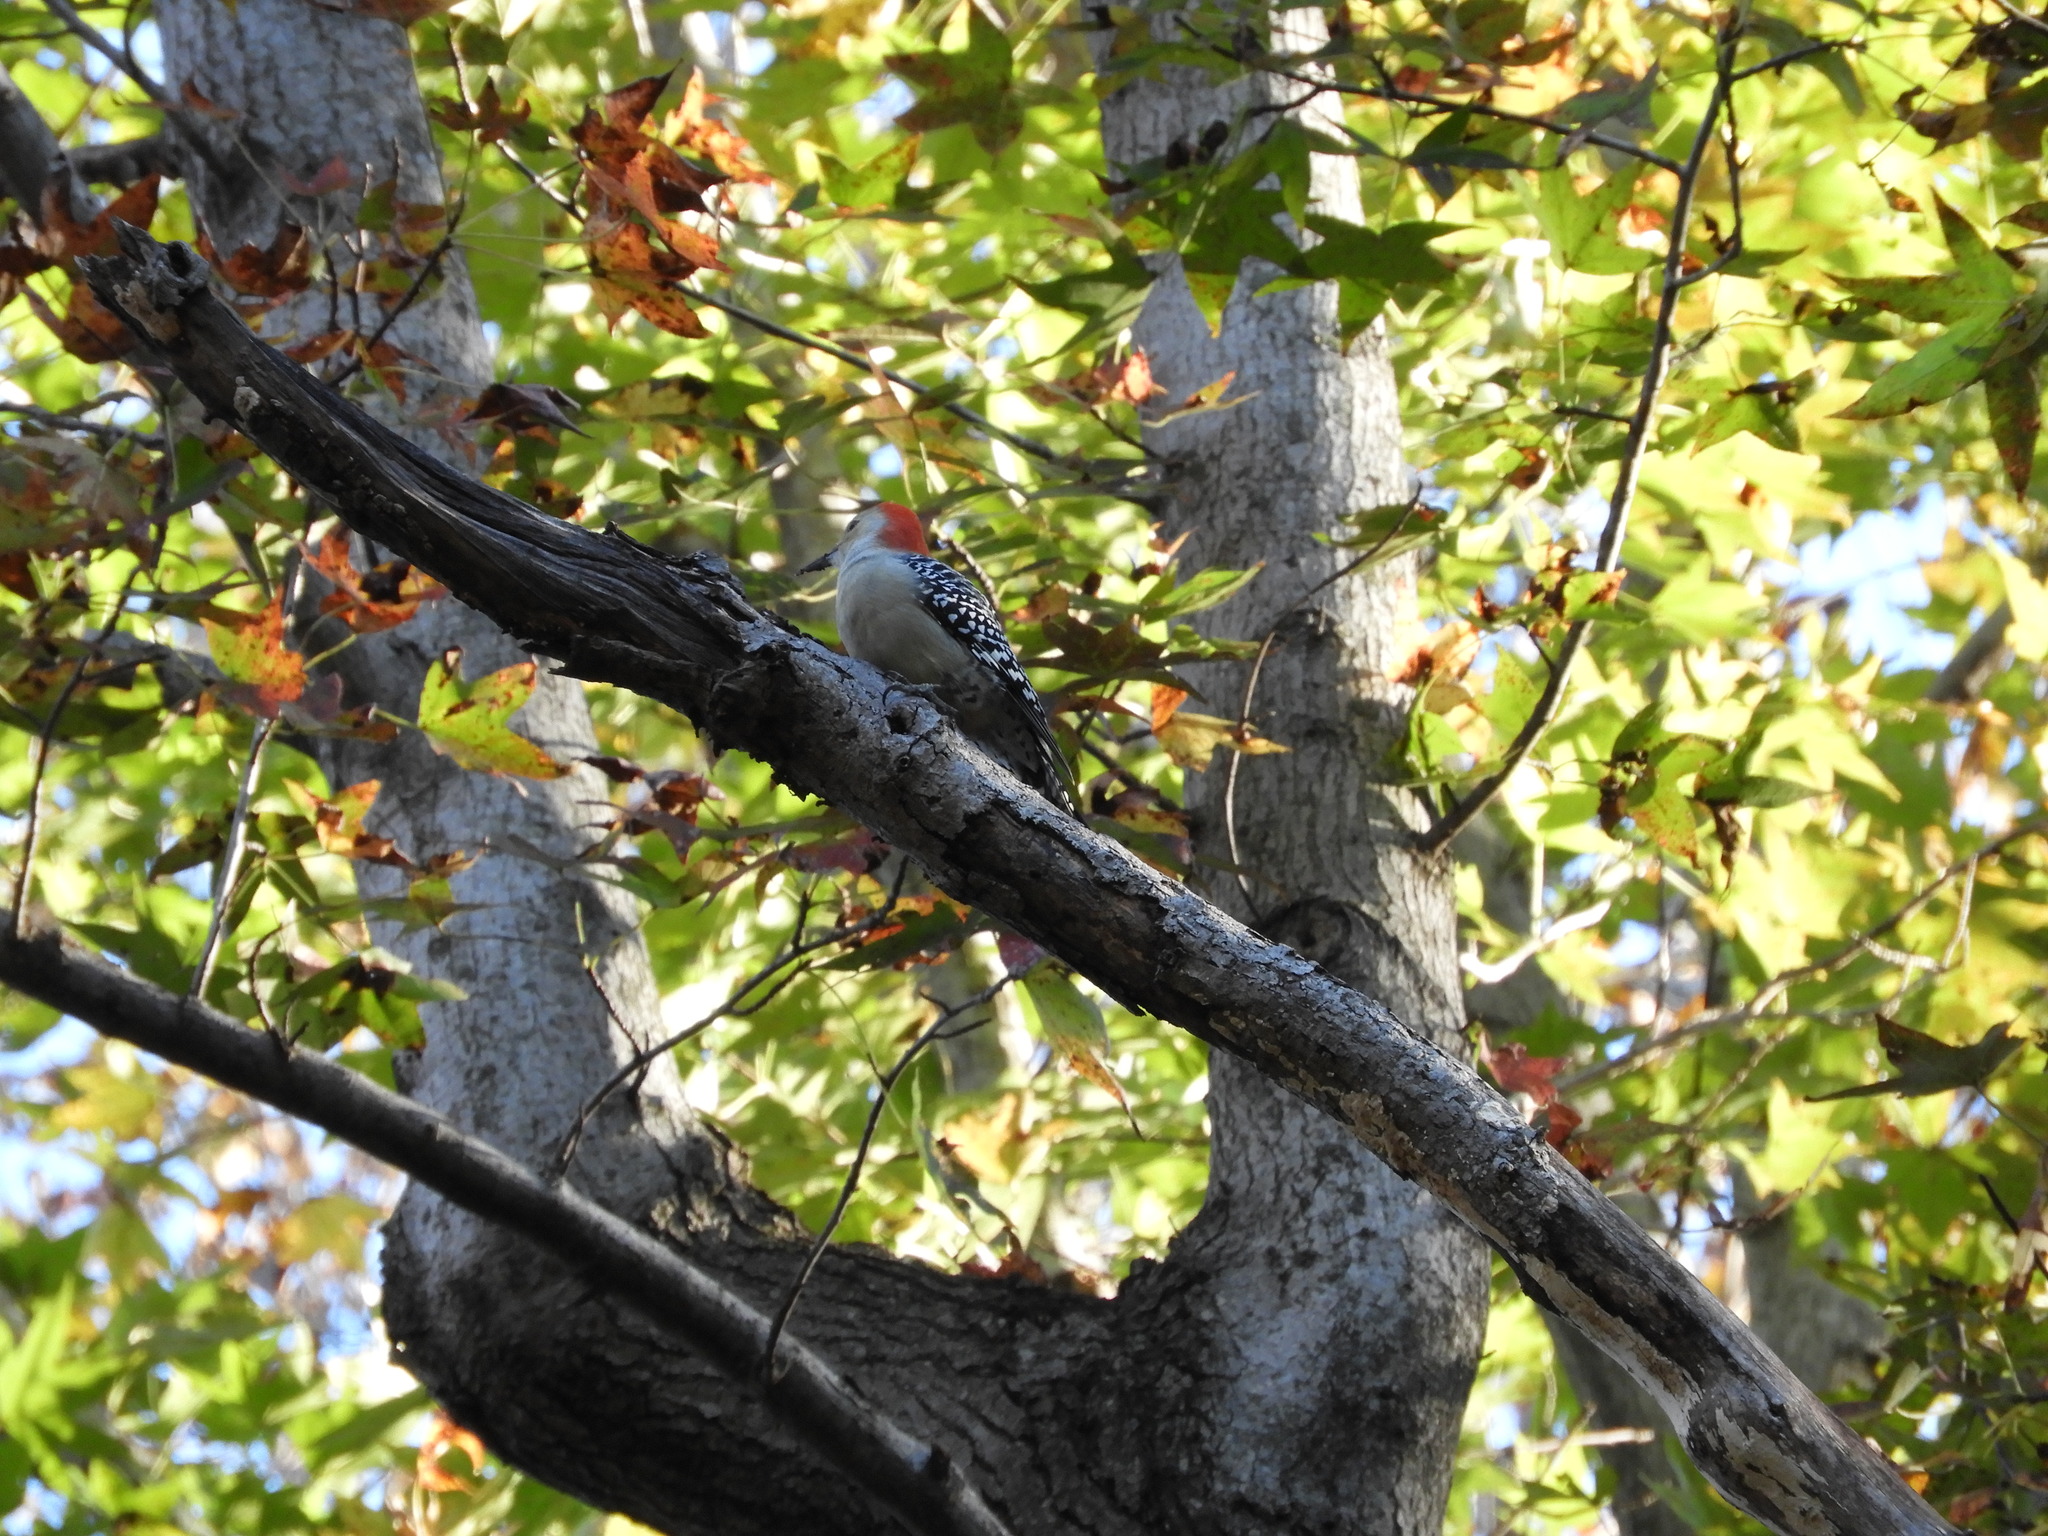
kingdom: Animalia
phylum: Chordata
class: Aves
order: Piciformes
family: Picidae
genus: Melanerpes
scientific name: Melanerpes carolinus
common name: Red-bellied woodpecker
